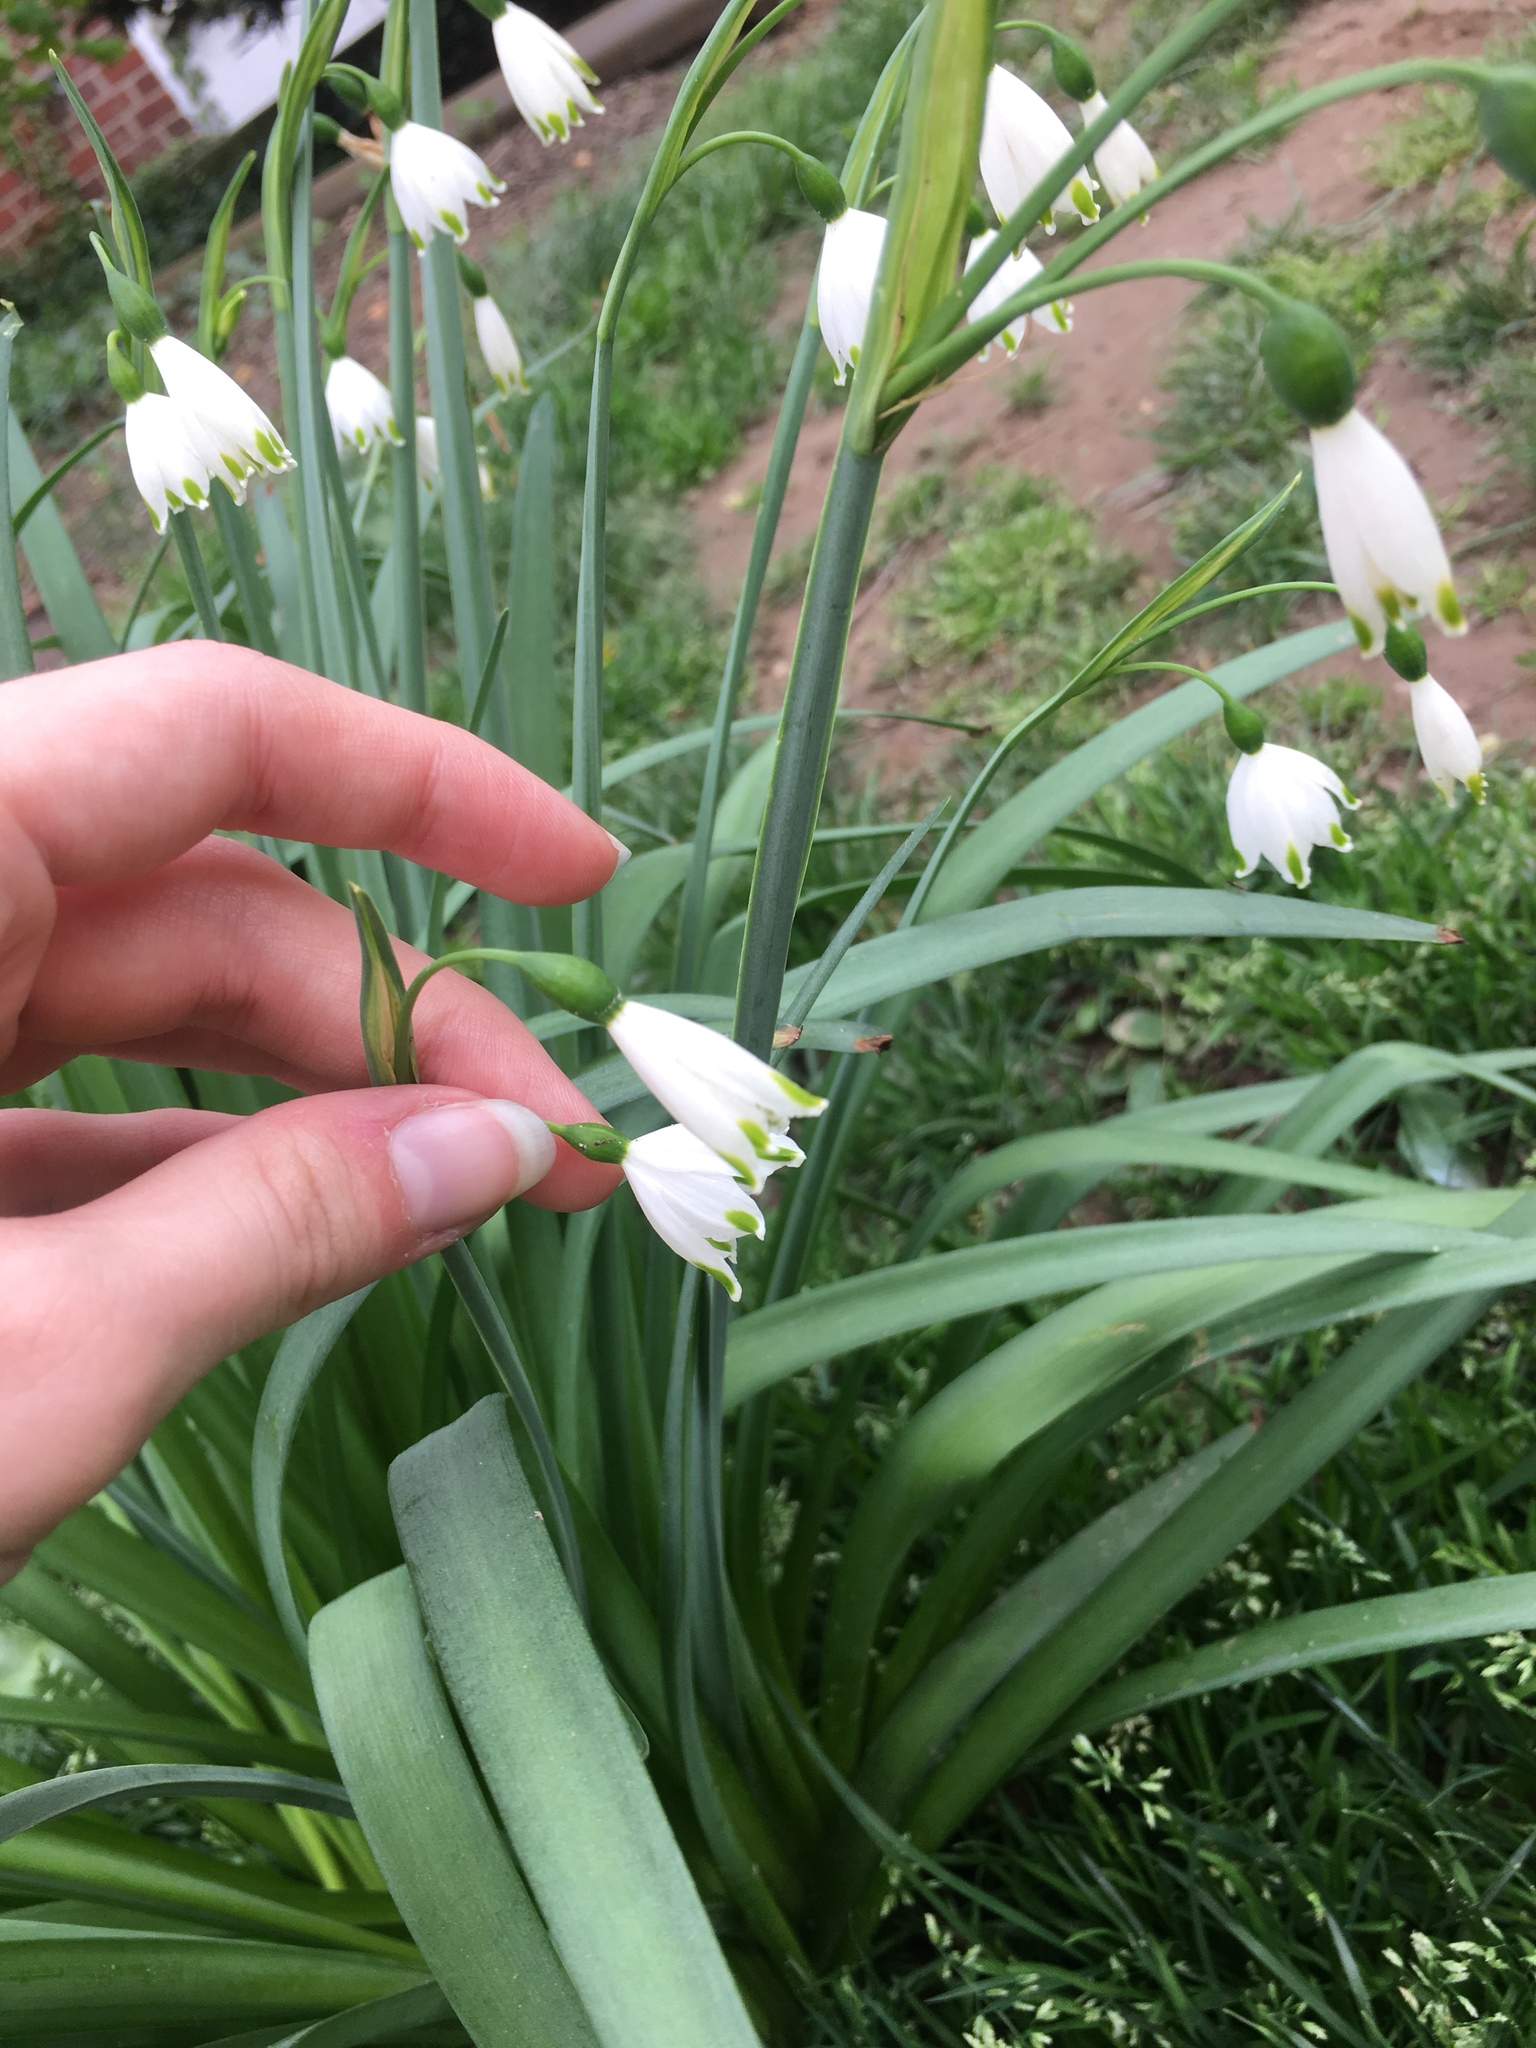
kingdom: Plantae
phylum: Tracheophyta
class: Liliopsida
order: Asparagales
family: Amaryllidaceae
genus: Leucojum
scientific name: Leucojum aestivum
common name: Summer snowflake
